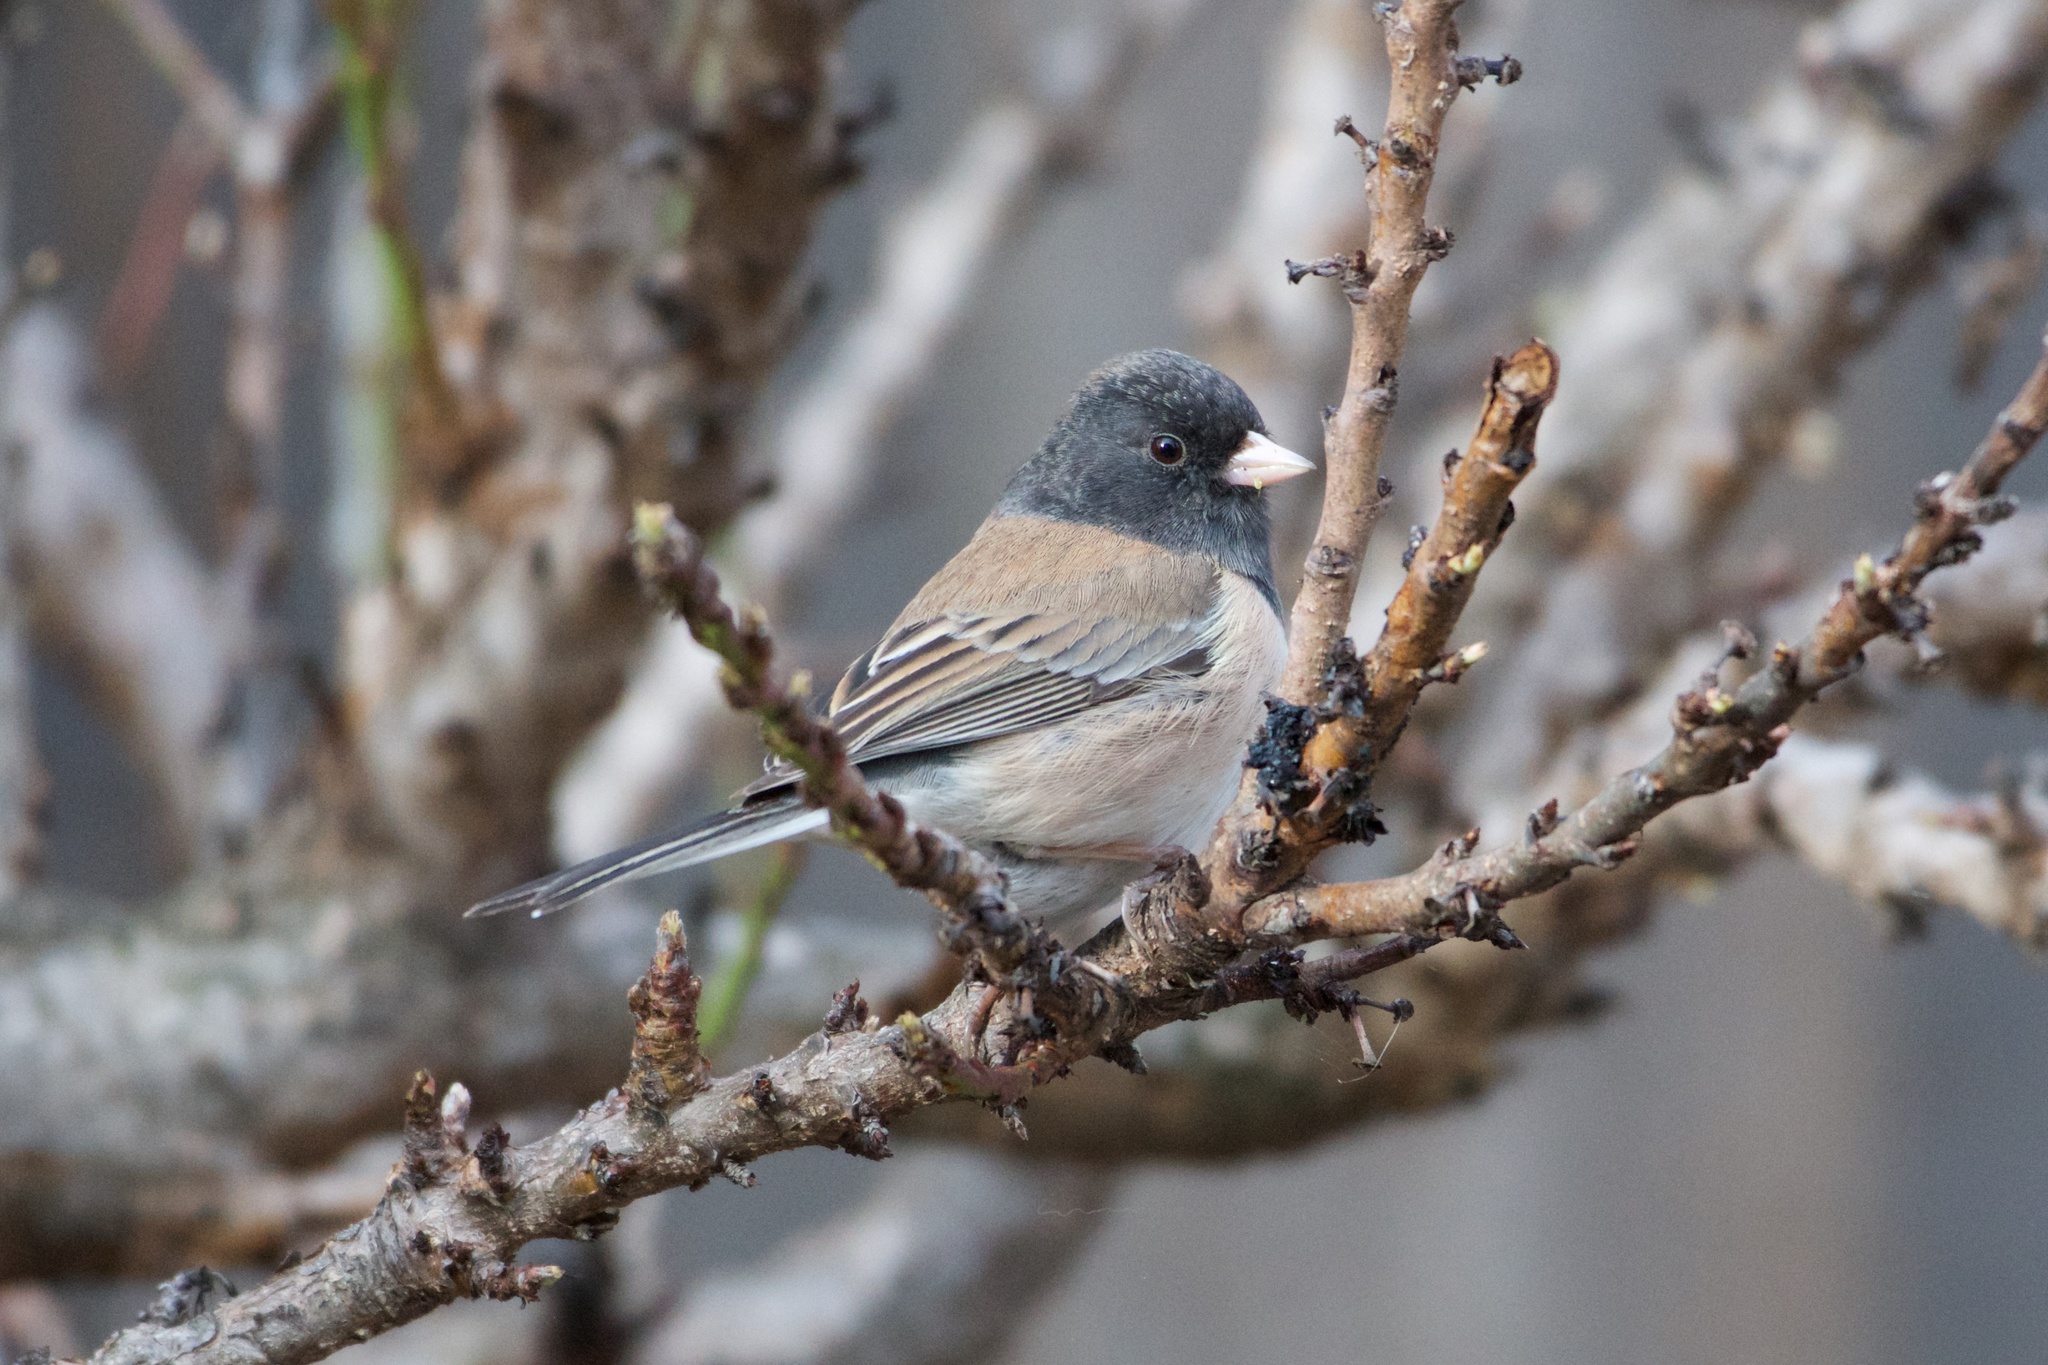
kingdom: Animalia
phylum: Chordata
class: Aves
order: Passeriformes
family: Passerellidae
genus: Junco
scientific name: Junco hyemalis
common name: Dark-eyed junco
